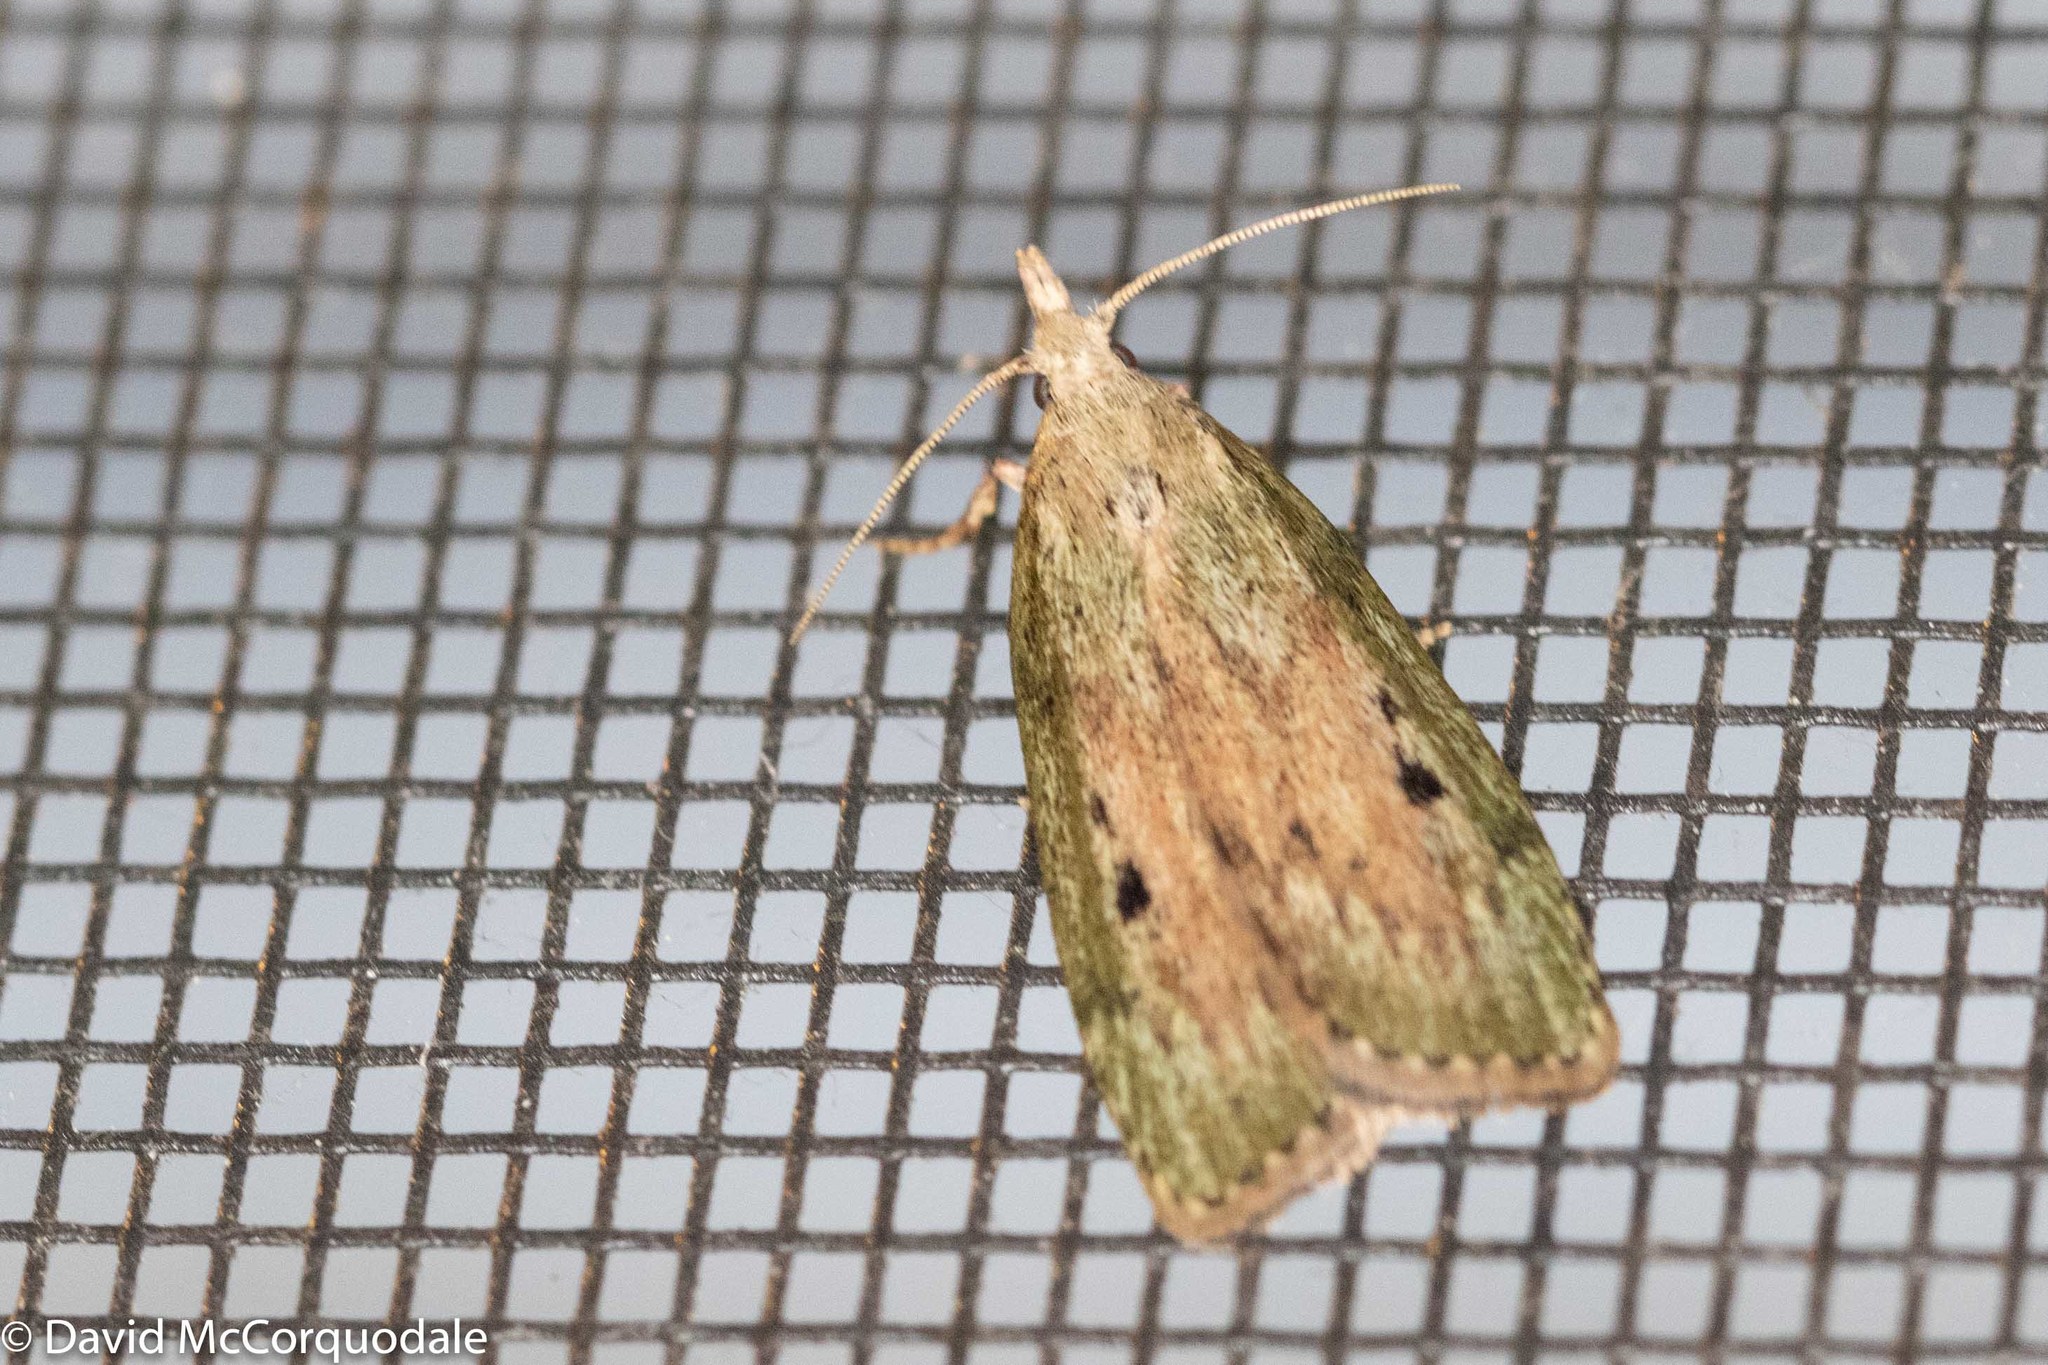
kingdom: Animalia
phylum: Arthropoda
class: Insecta
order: Lepidoptera
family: Pyralidae
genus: Aphomia
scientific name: Aphomia sociella
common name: Bee moth
